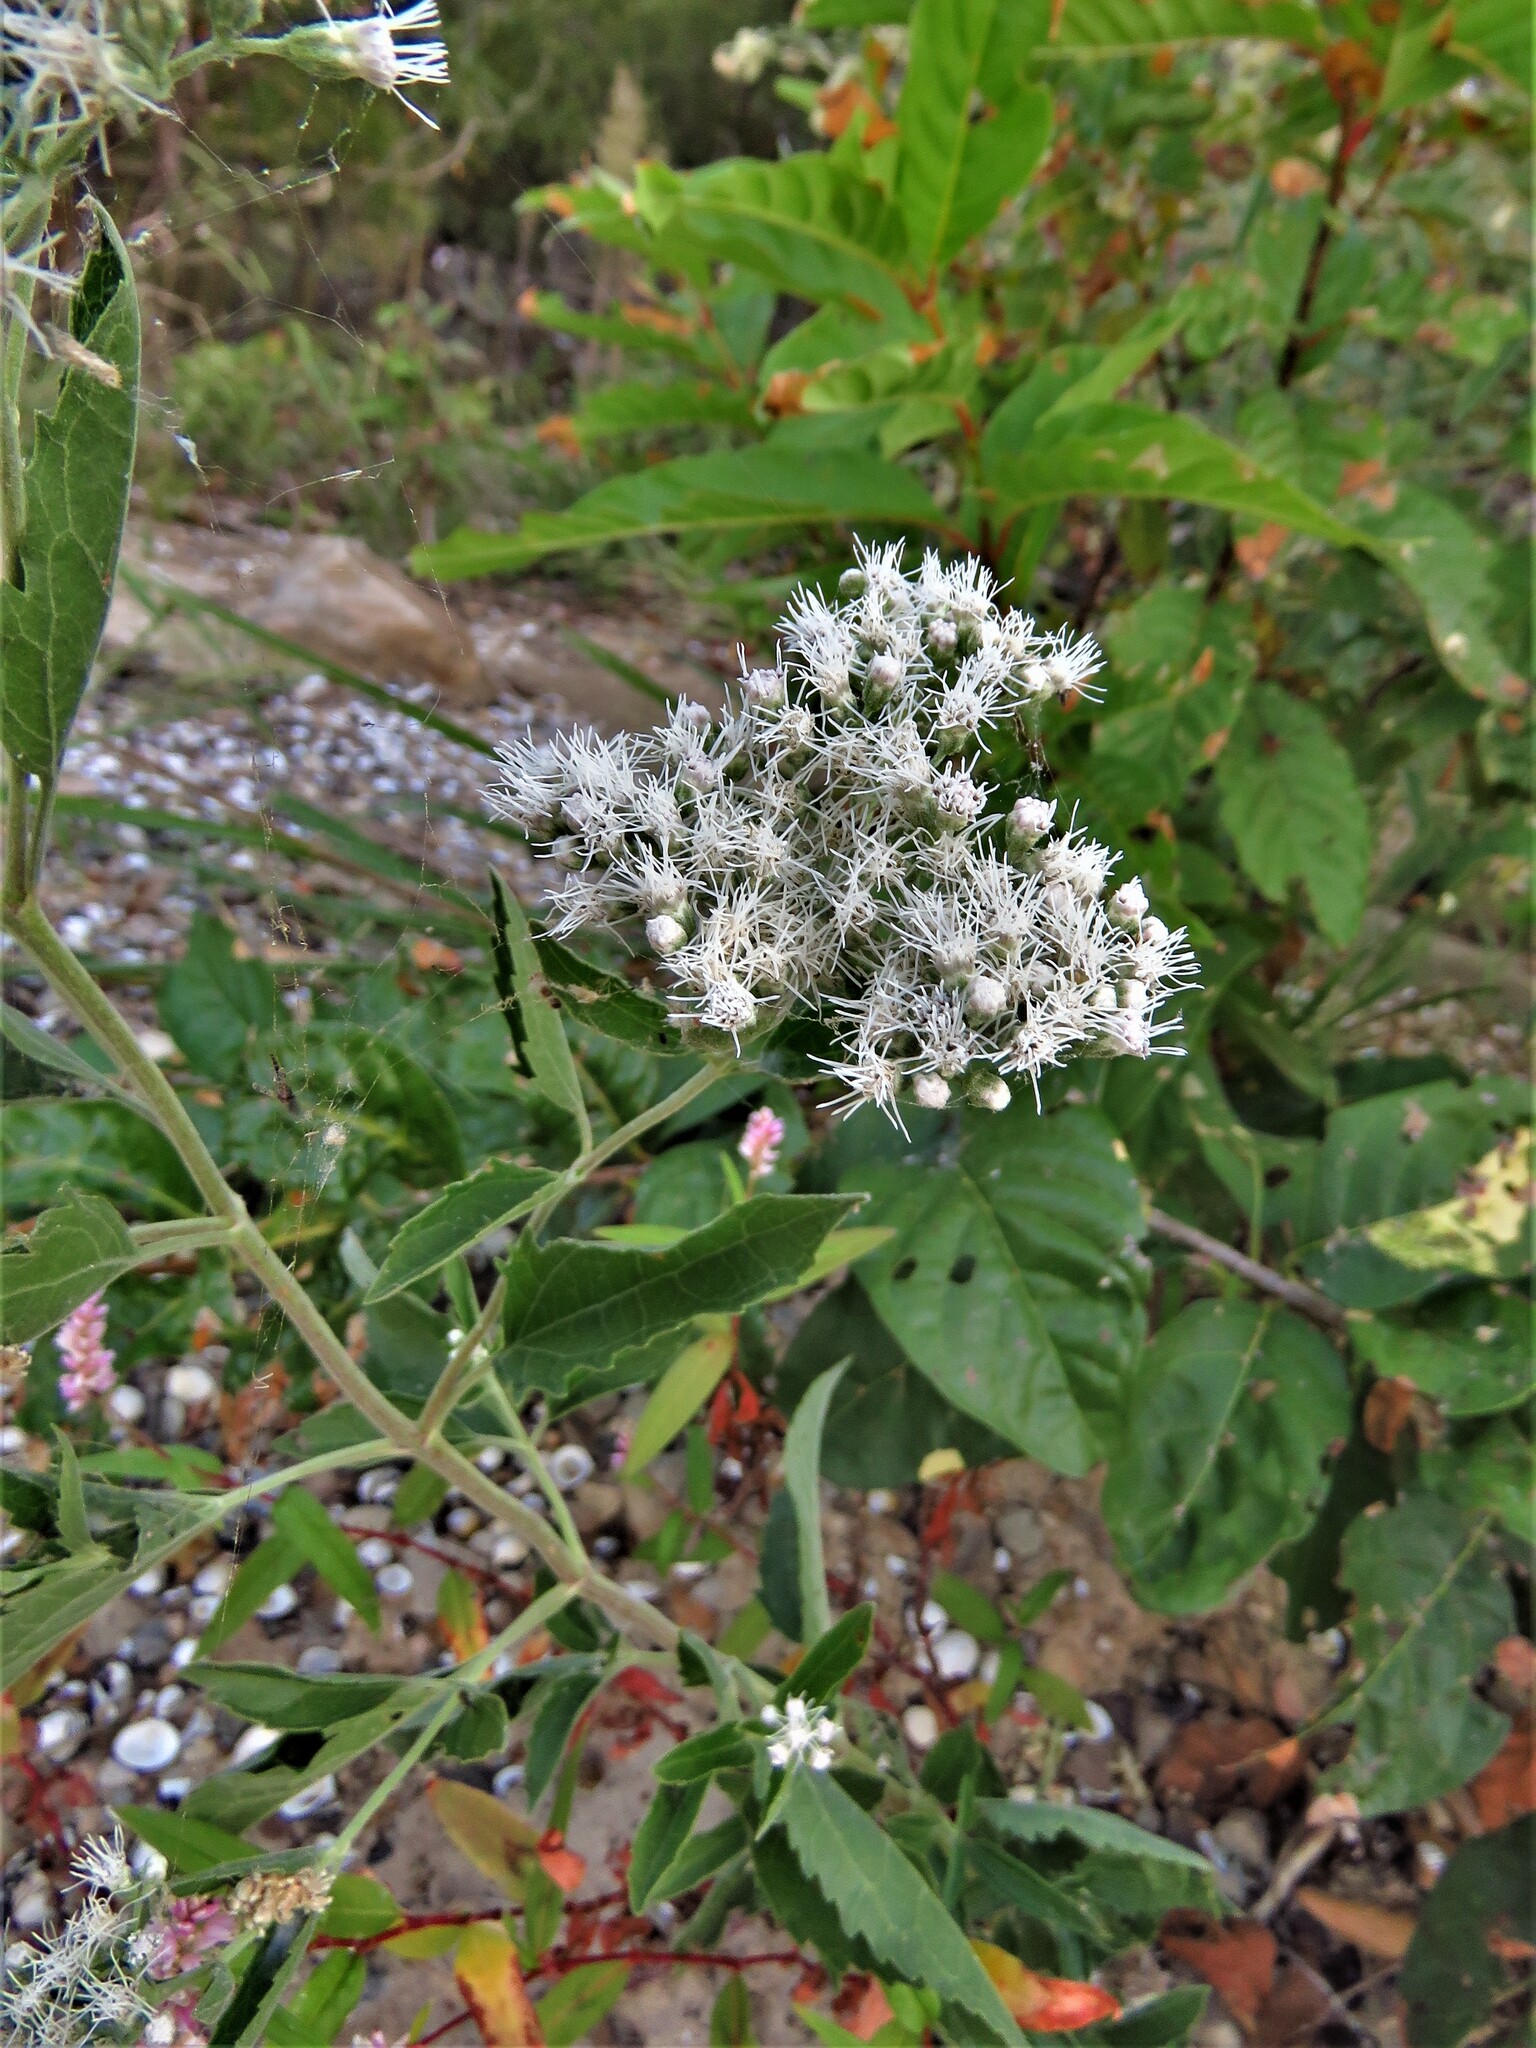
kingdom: Plantae
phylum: Tracheophyta
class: Magnoliopsida
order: Asterales
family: Asteraceae
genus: Eupatorium
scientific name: Eupatorium serotinum
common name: Late boneset
